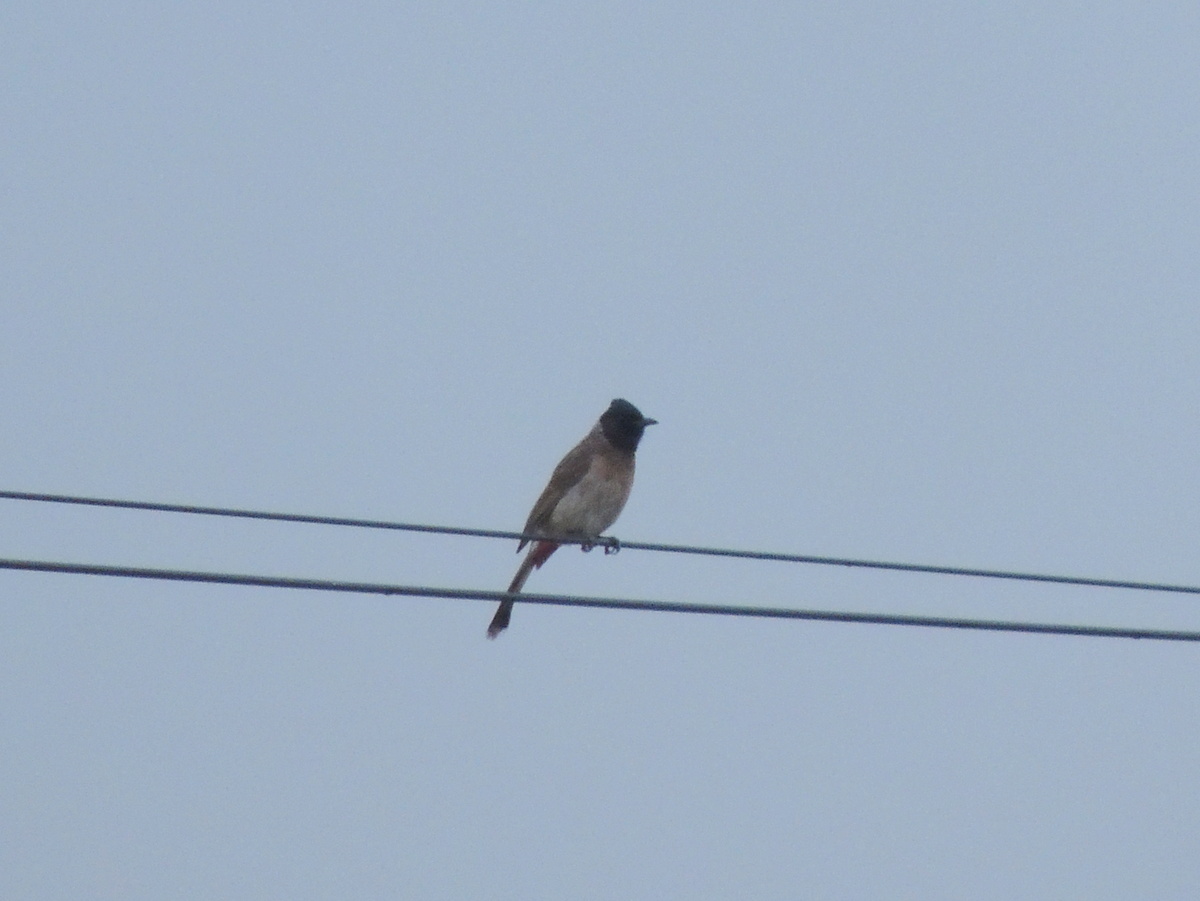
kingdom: Animalia
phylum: Chordata
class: Aves
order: Passeriformes
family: Pycnonotidae
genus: Pycnonotus
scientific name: Pycnonotus cafer
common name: Red-vented bulbul
